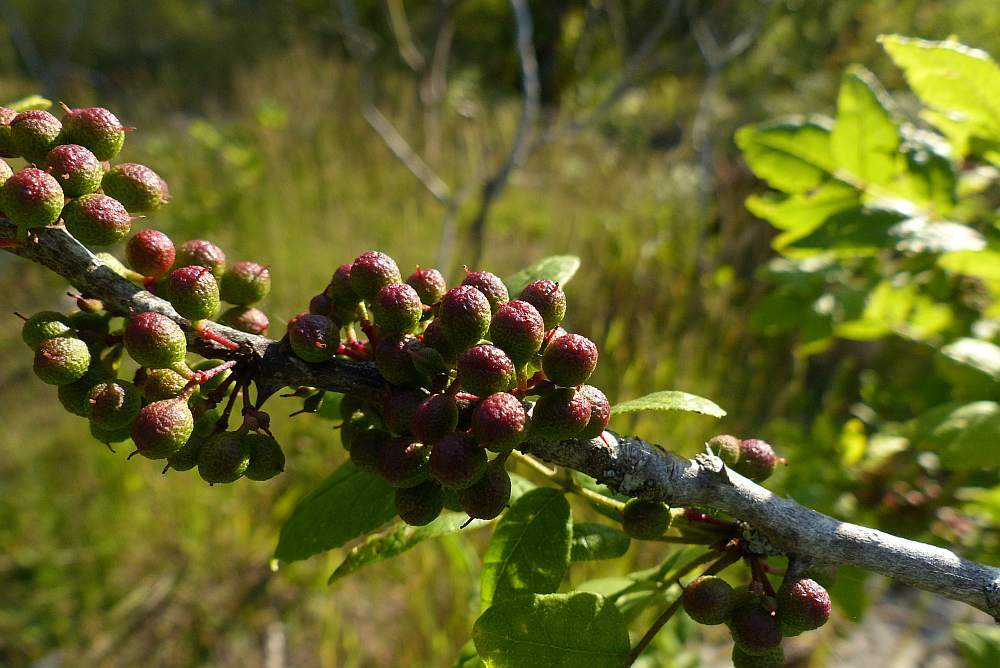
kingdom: Plantae
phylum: Tracheophyta
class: Magnoliopsida
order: Sapindales
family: Rutaceae
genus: Zanthoxylum
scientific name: Zanthoxylum americanum
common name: Northern prickly-ash
